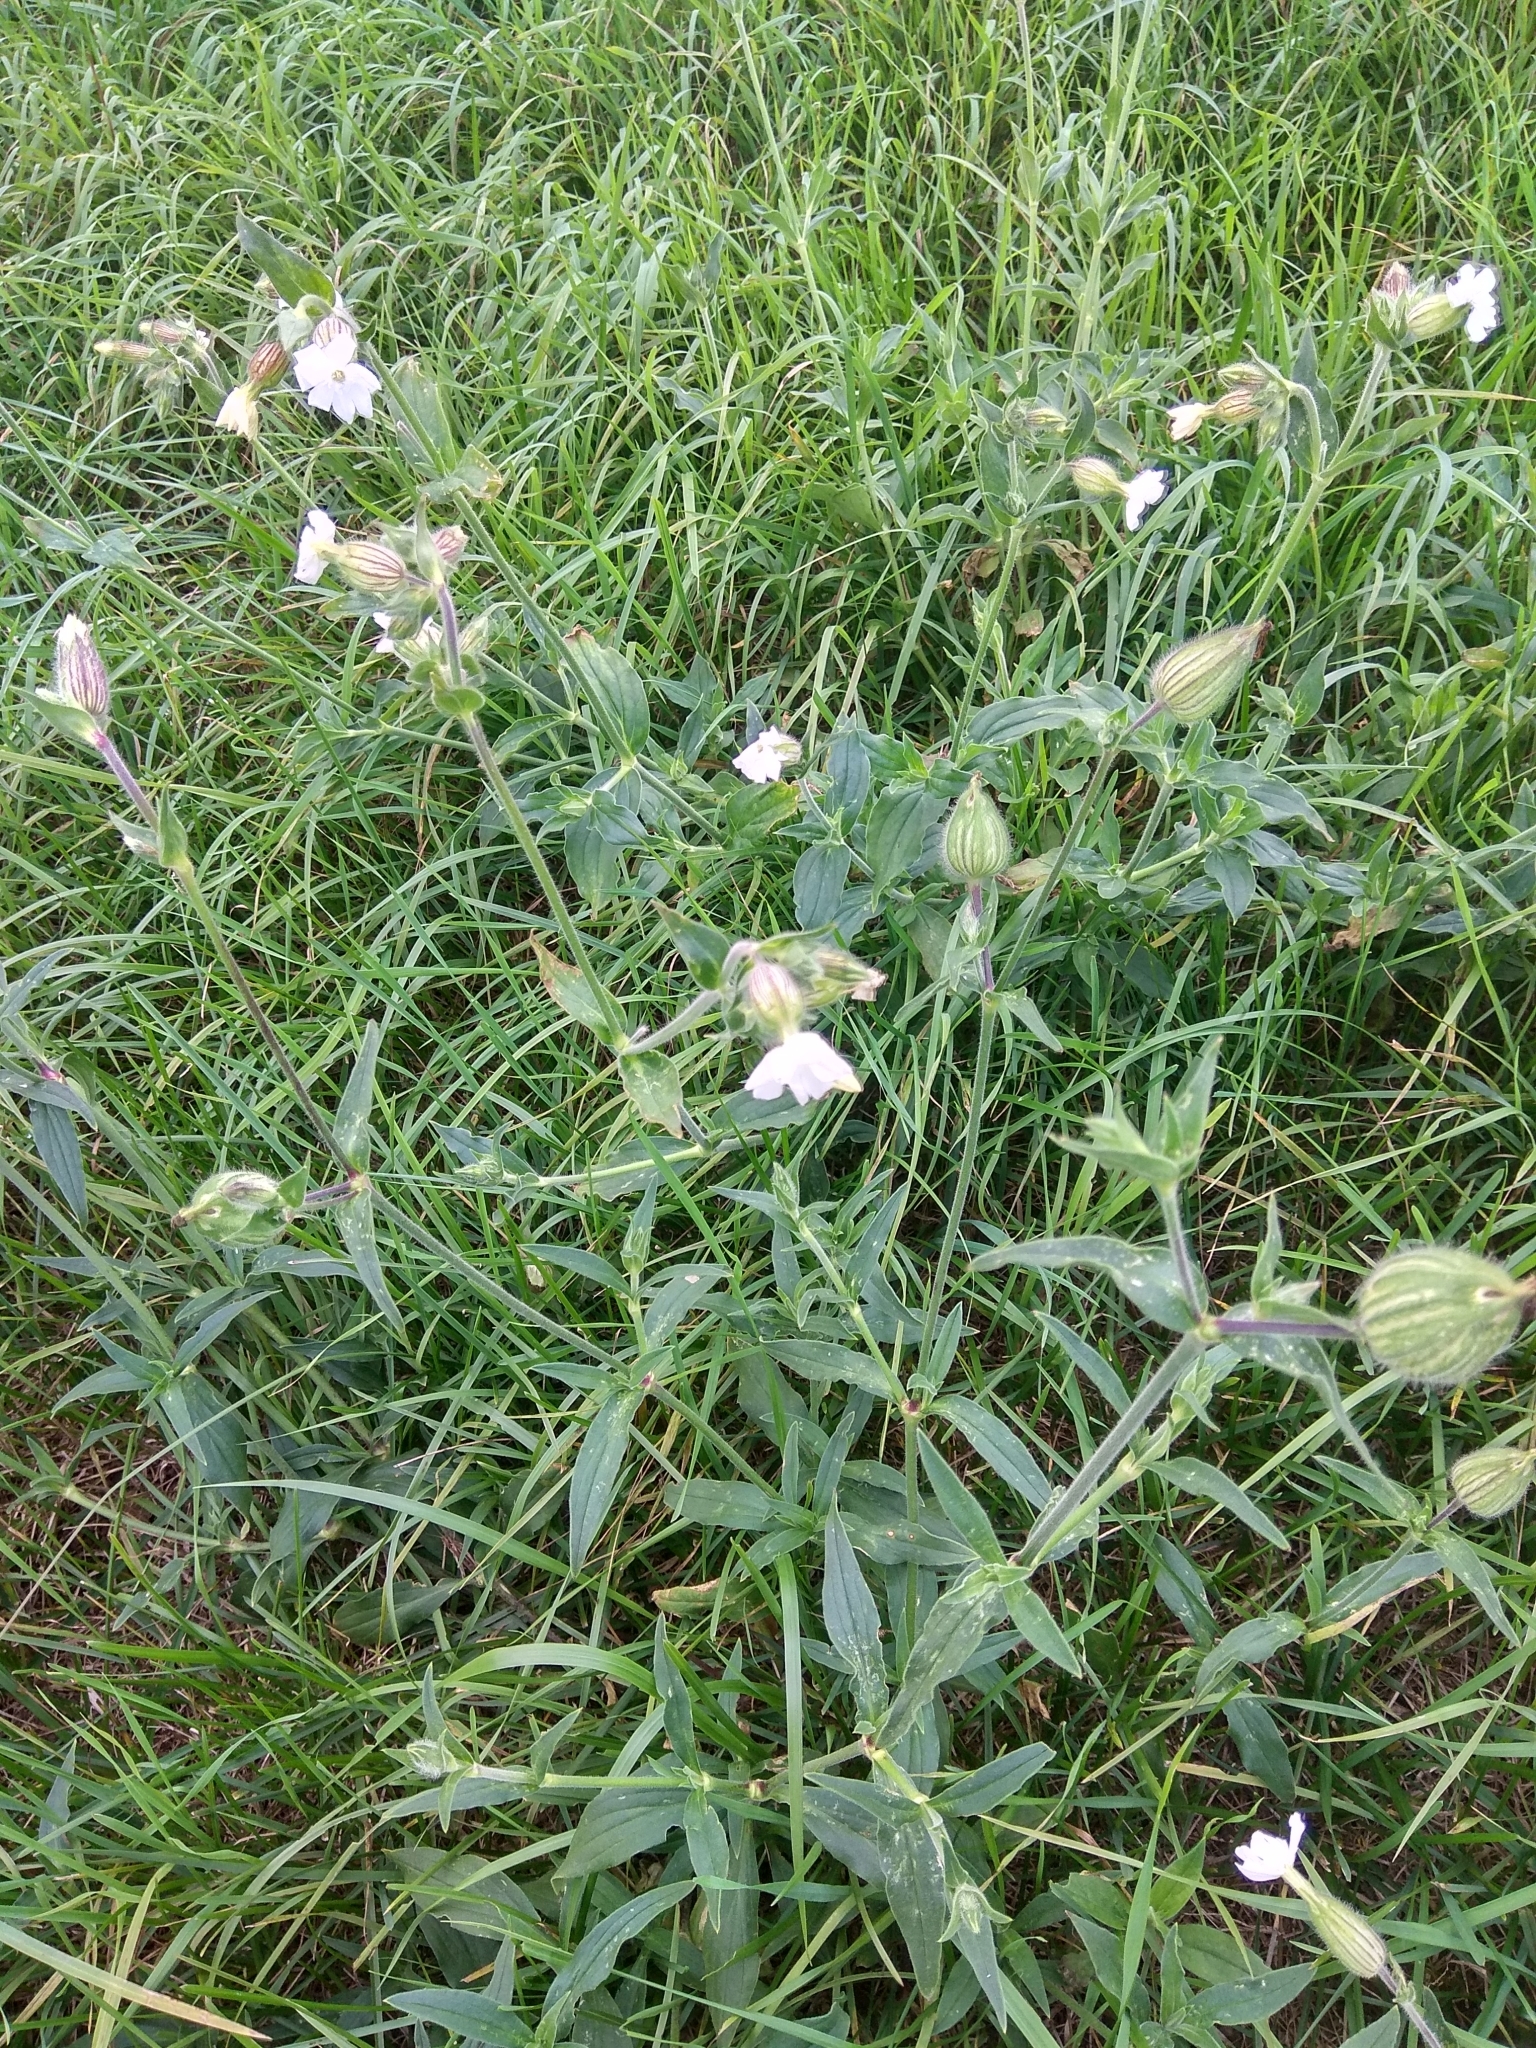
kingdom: Plantae
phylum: Tracheophyta
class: Magnoliopsida
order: Caryophyllales
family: Caryophyllaceae
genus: Silene
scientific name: Silene latifolia
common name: White campion
